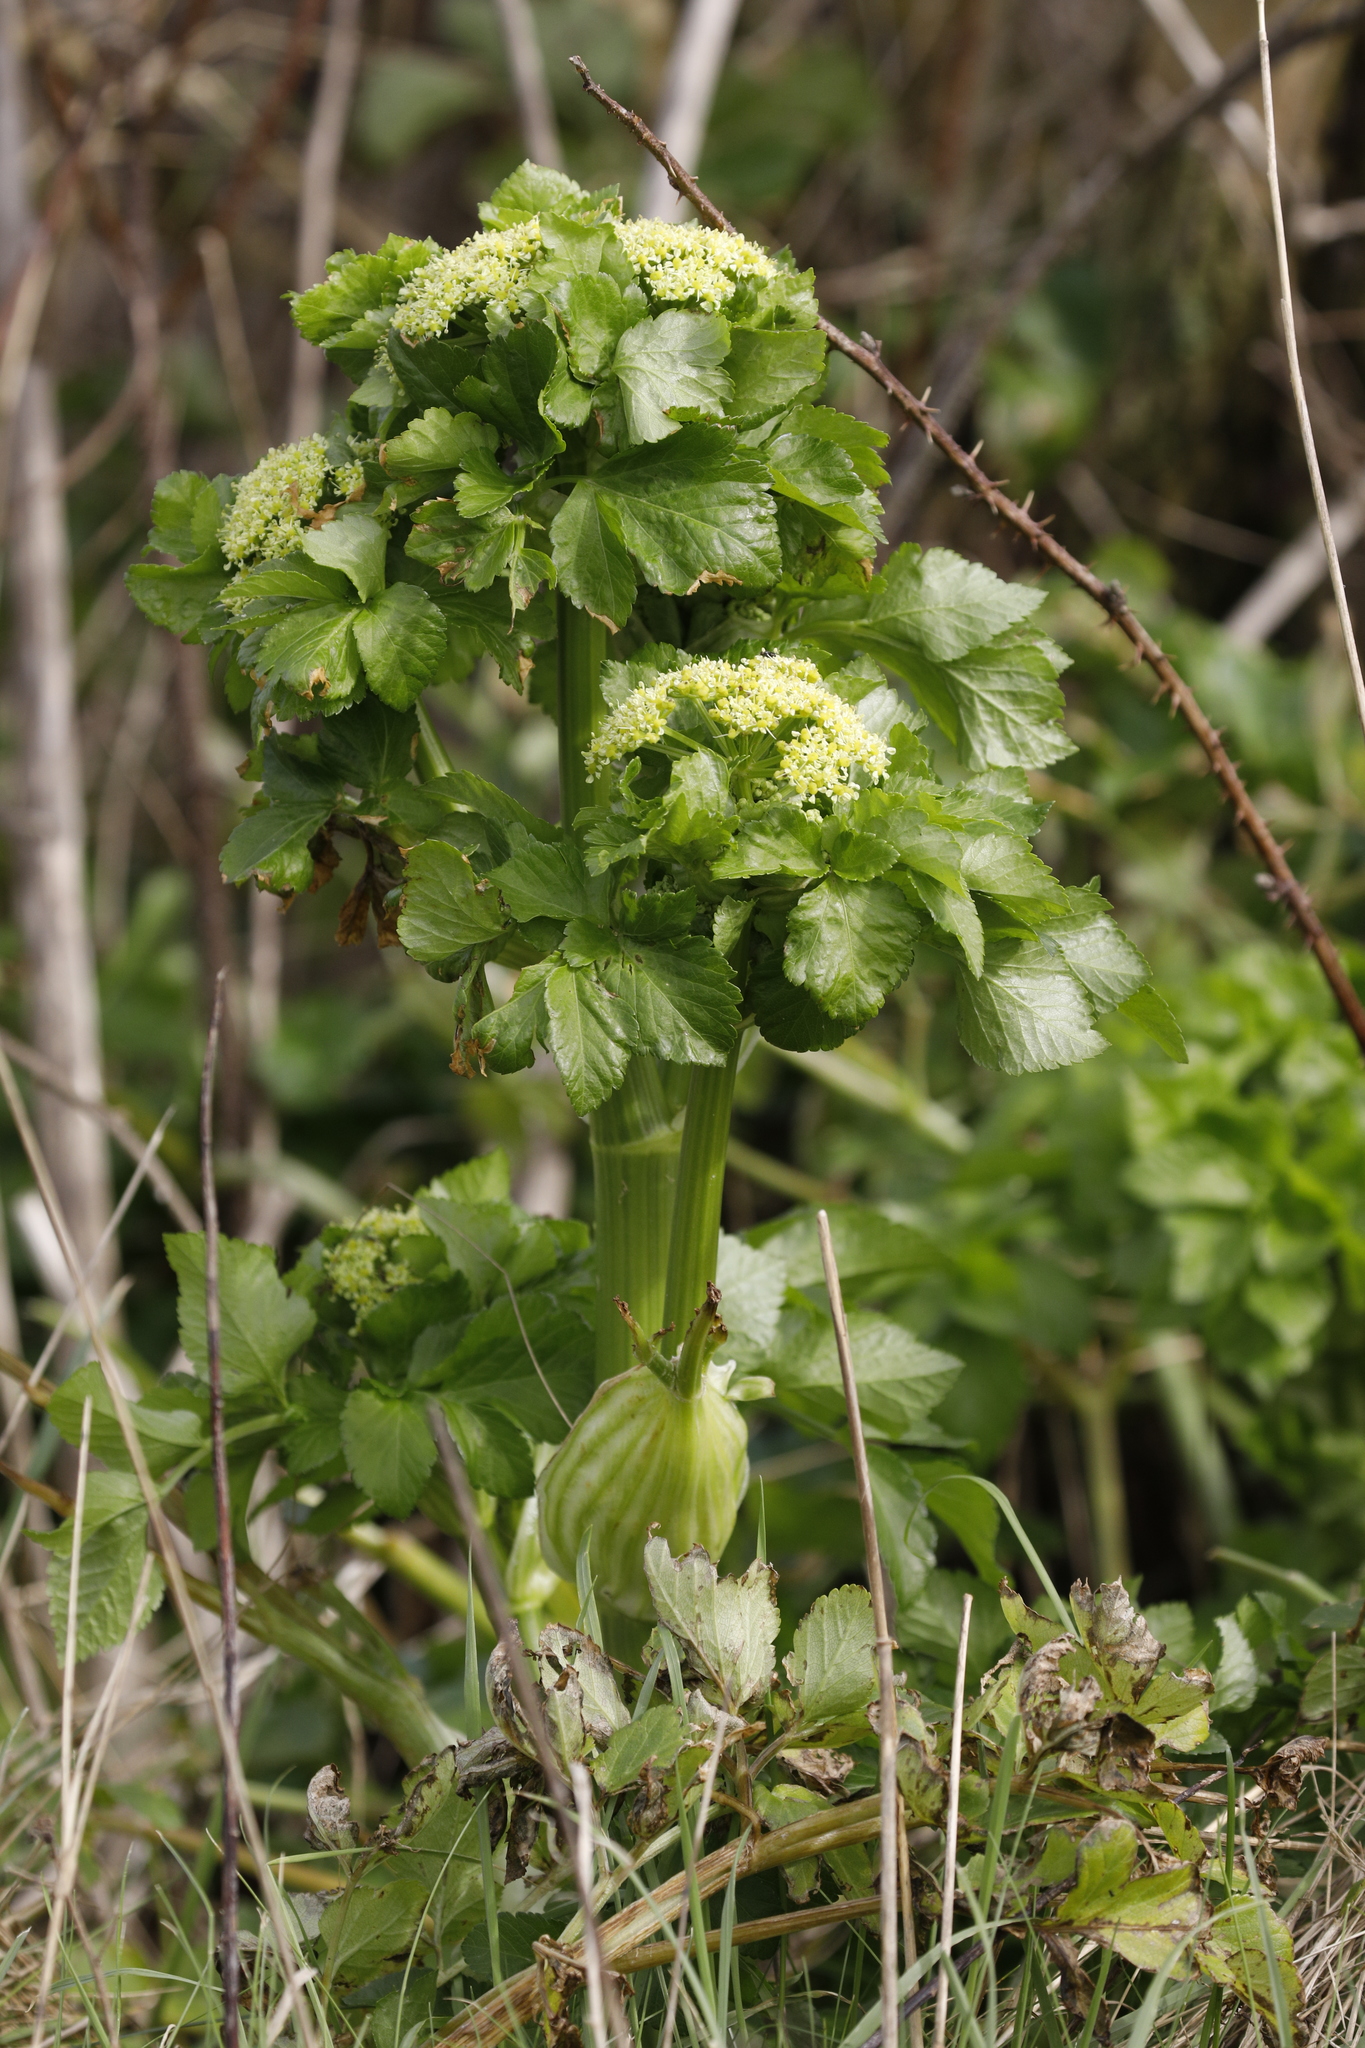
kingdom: Plantae
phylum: Tracheophyta
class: Magnoliopsida
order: Apiales
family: Apiaceae
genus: Smyrnium
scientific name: Smyrnium olusatrum
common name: Alexanders
